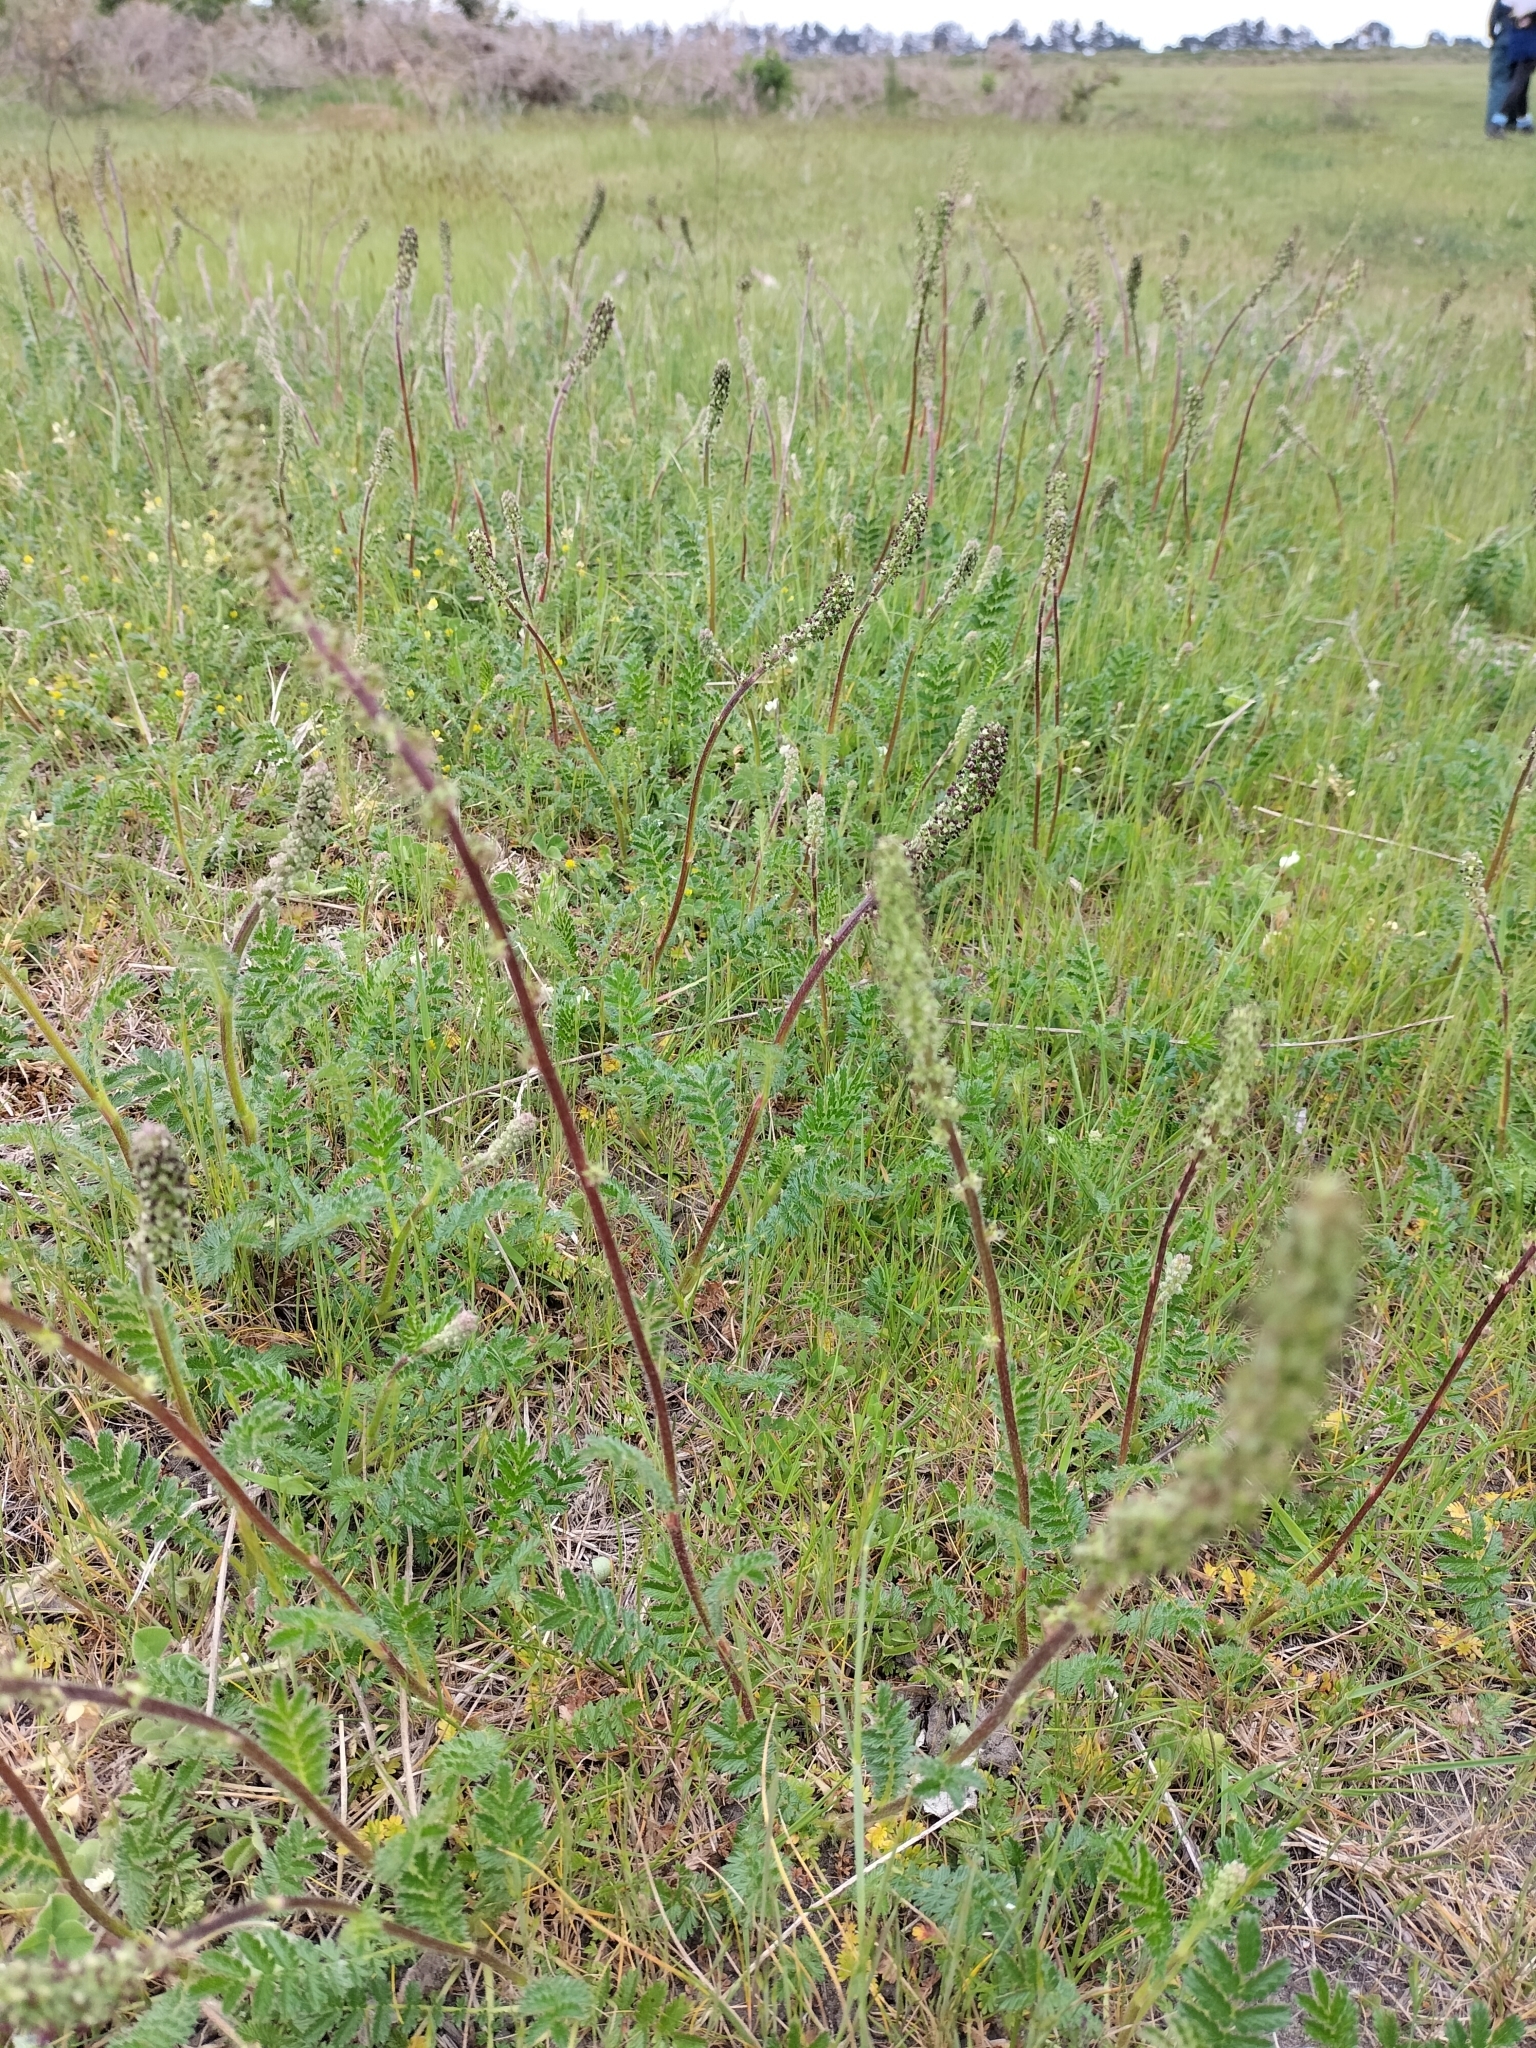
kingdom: Plantae
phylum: Tracheophyta
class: Magnoliopsida
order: Rosales
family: Rosaceae
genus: Acaena
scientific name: Acaena agnipila
